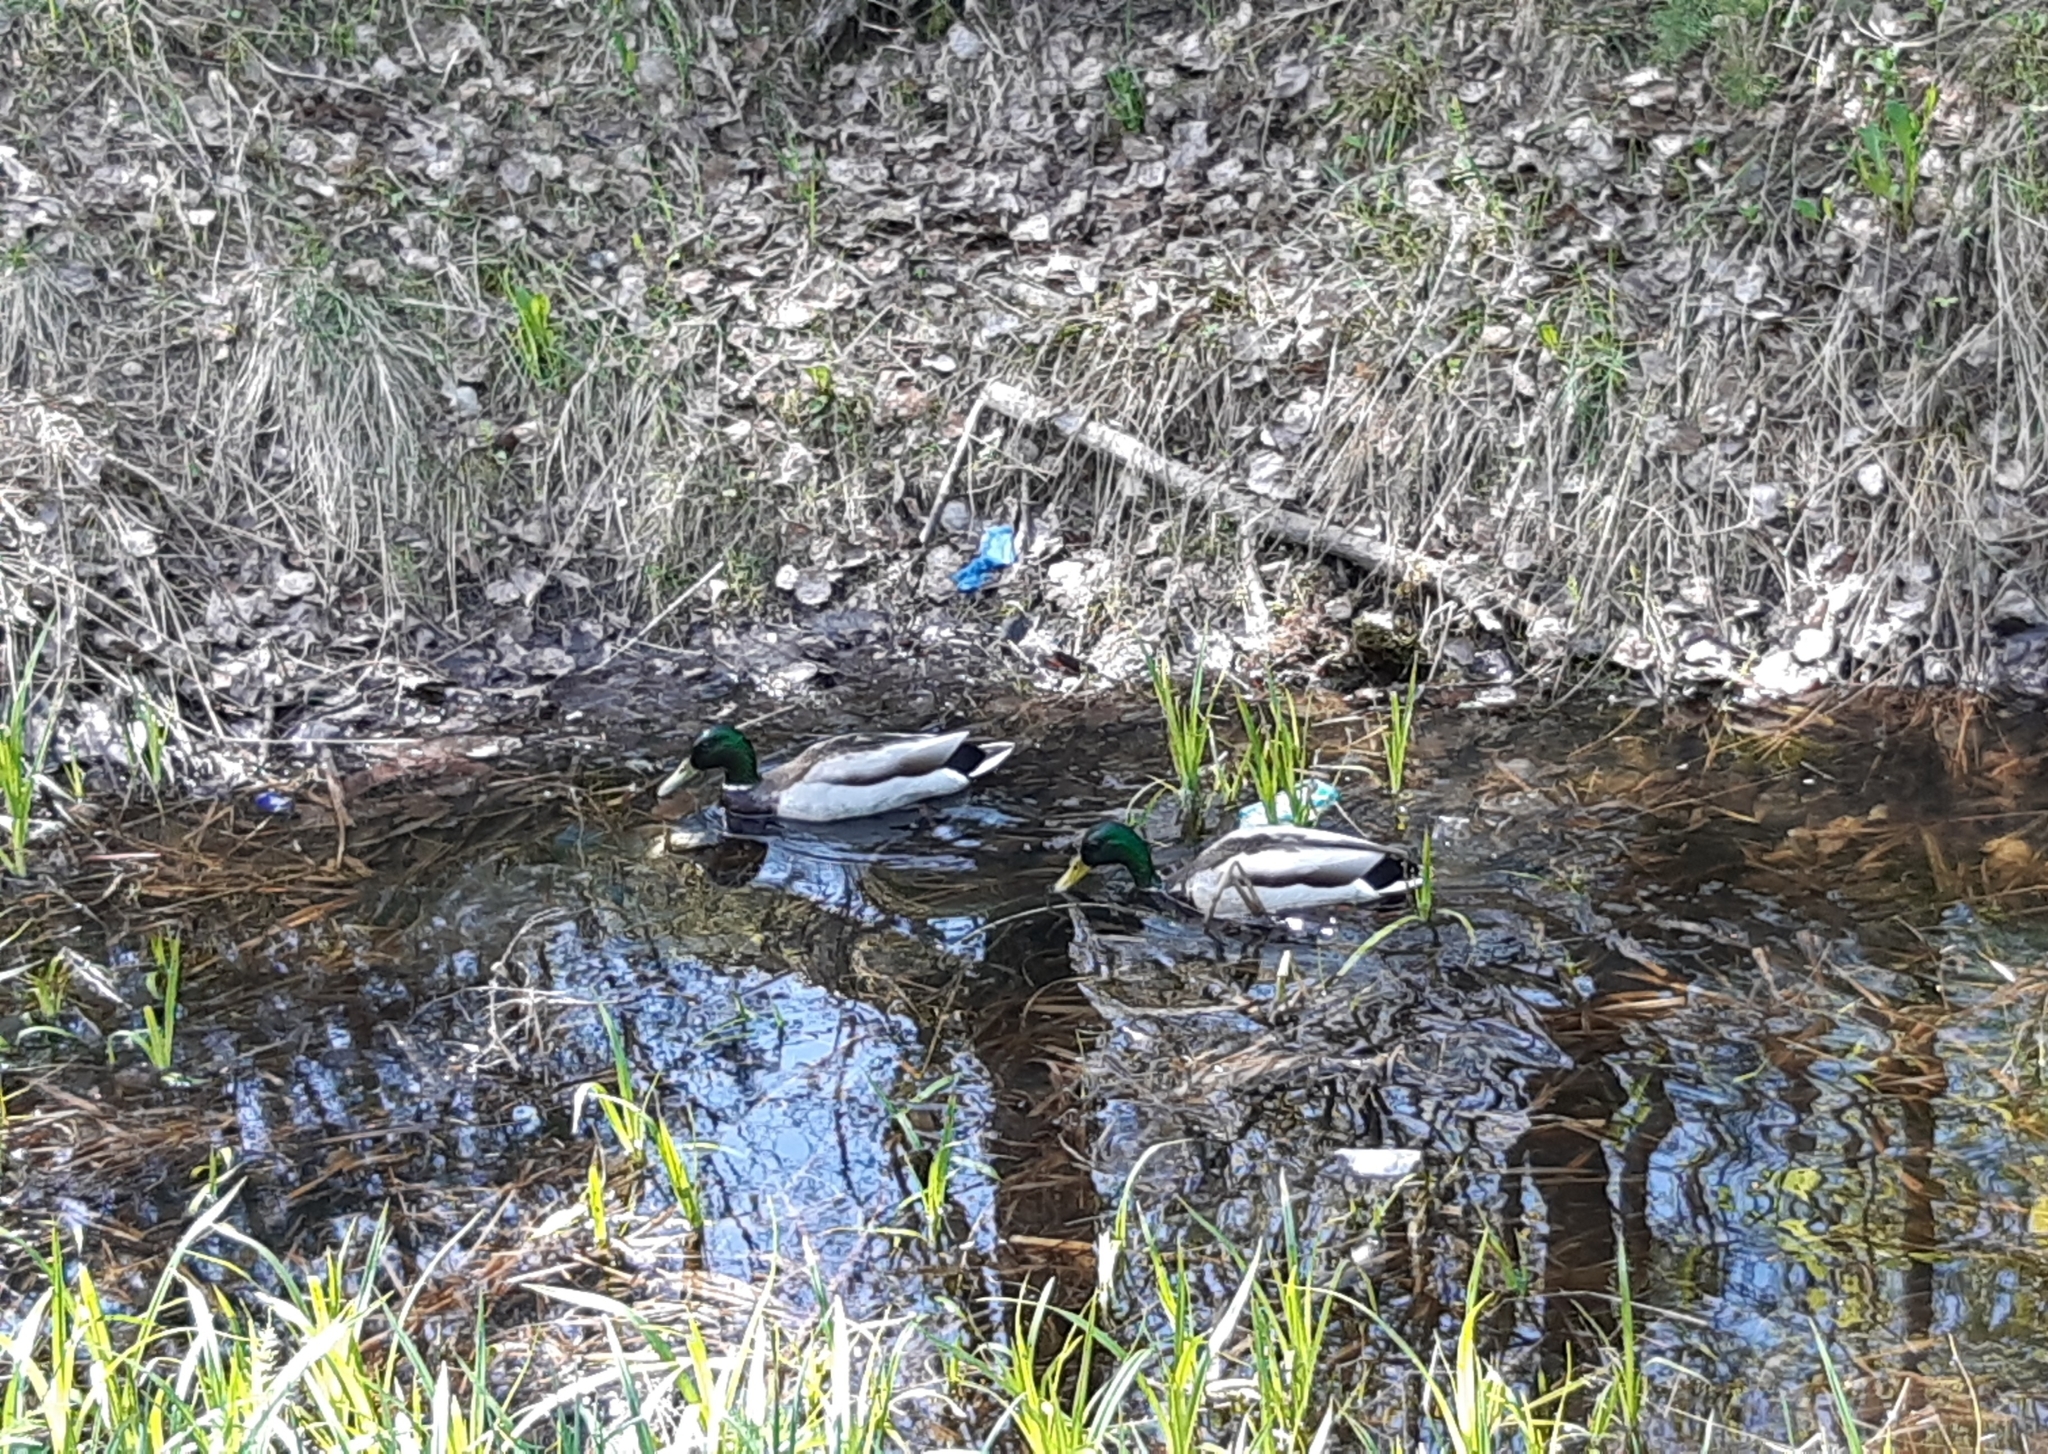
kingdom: Animalia
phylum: Chordata
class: Aves
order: Anseriformes
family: Anatidae
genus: Anas
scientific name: Anas platyrhynchos
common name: Mallard
